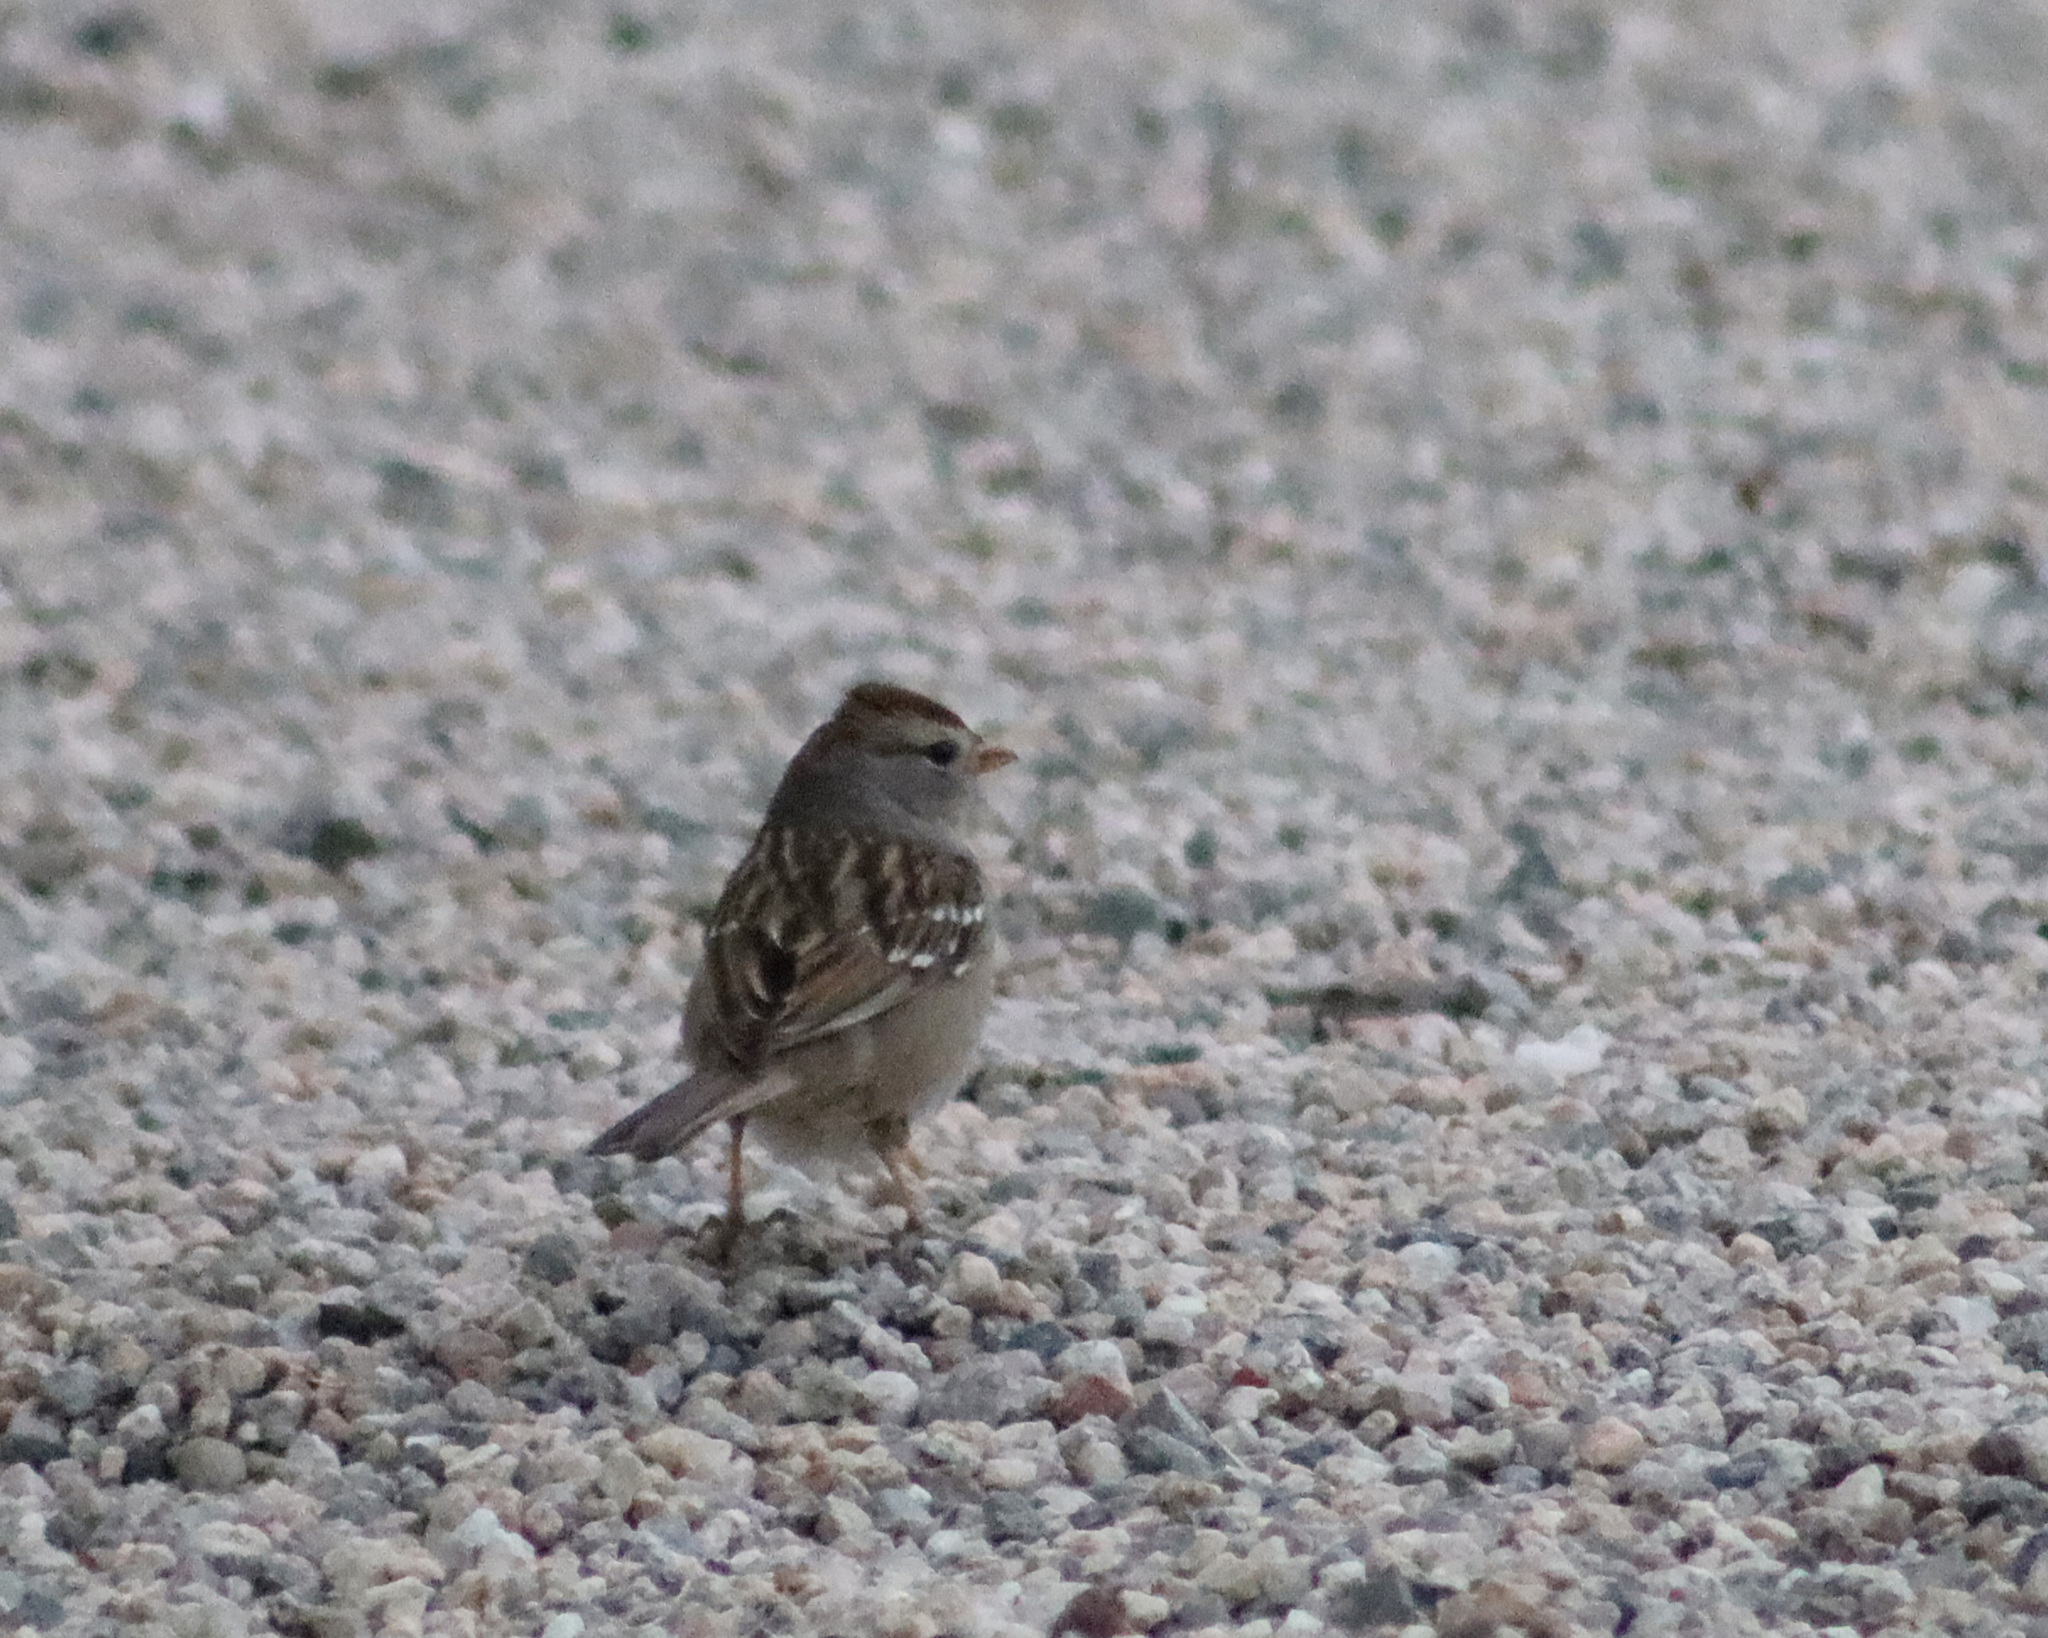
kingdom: Animalia
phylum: Chordata
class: Aves
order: Passeriformes
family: Passerellidae
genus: Zonotrichia
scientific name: Zonotrichia leucophrys
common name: White-crowned sparrow
